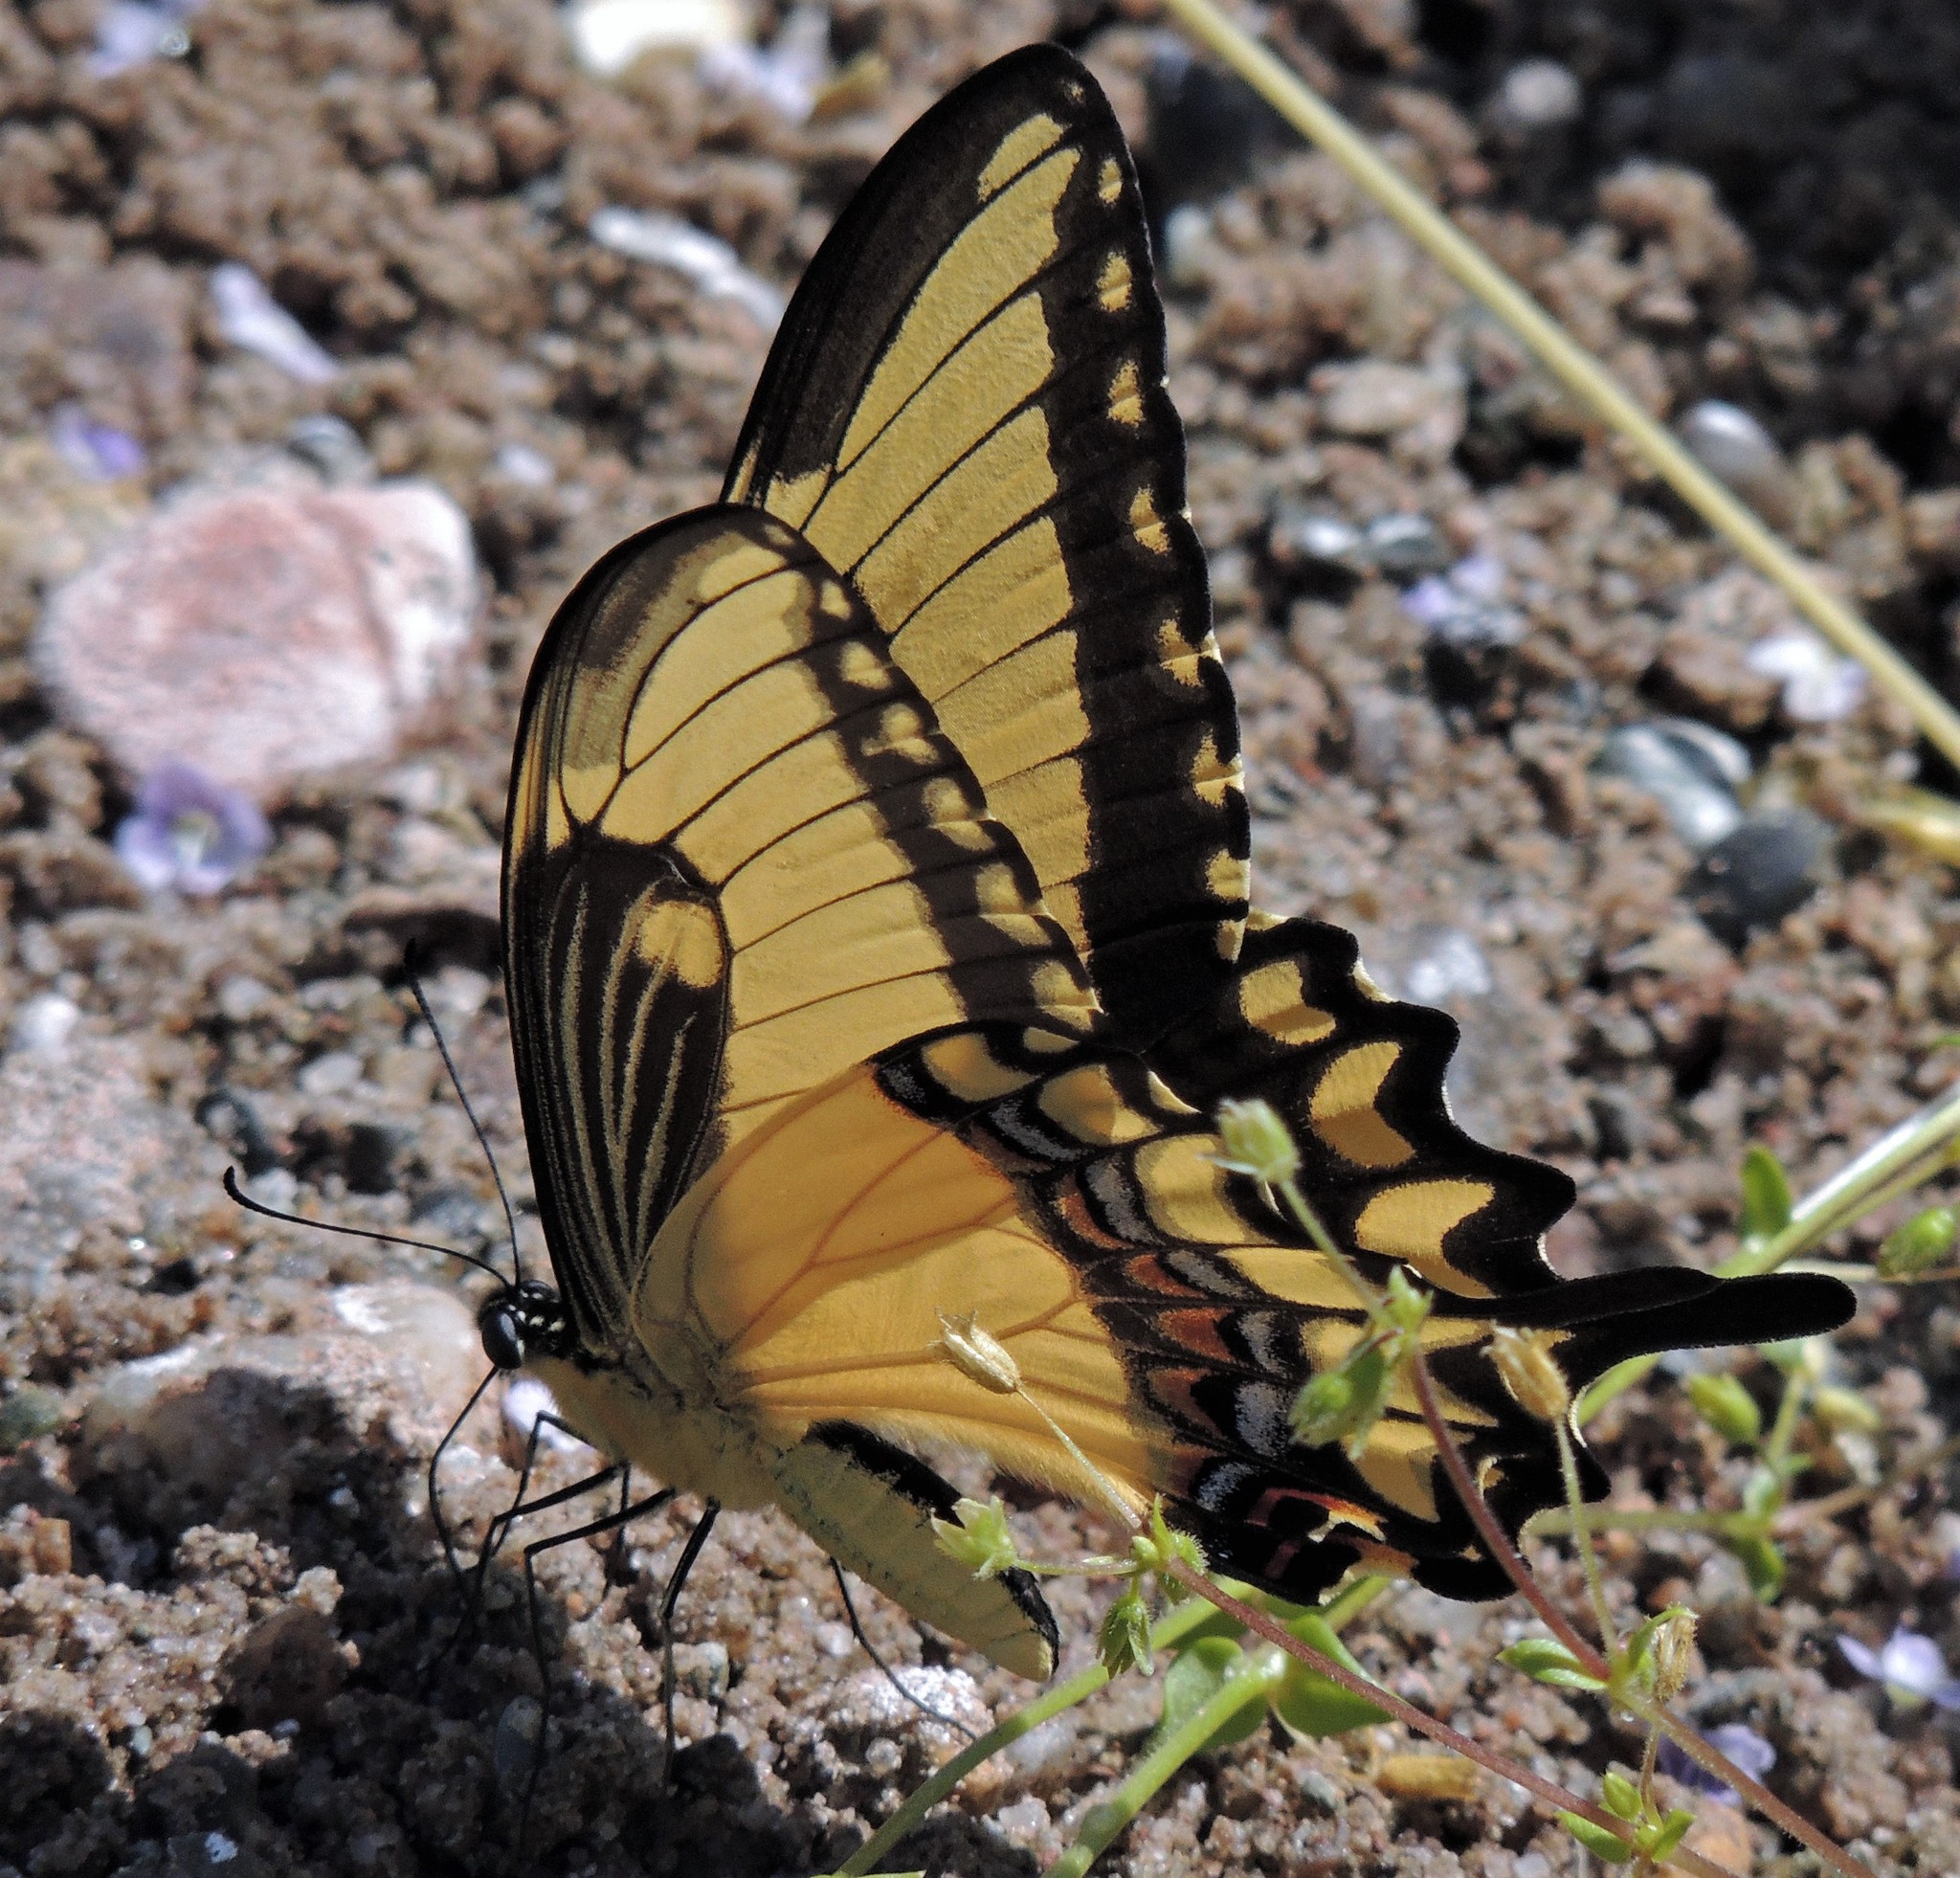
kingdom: Animalia
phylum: Arthropoda
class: Insecta
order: Lepidoptera
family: Papilionidae
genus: Papilio
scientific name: Papilio astyalus
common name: Astyalus swallowtail
